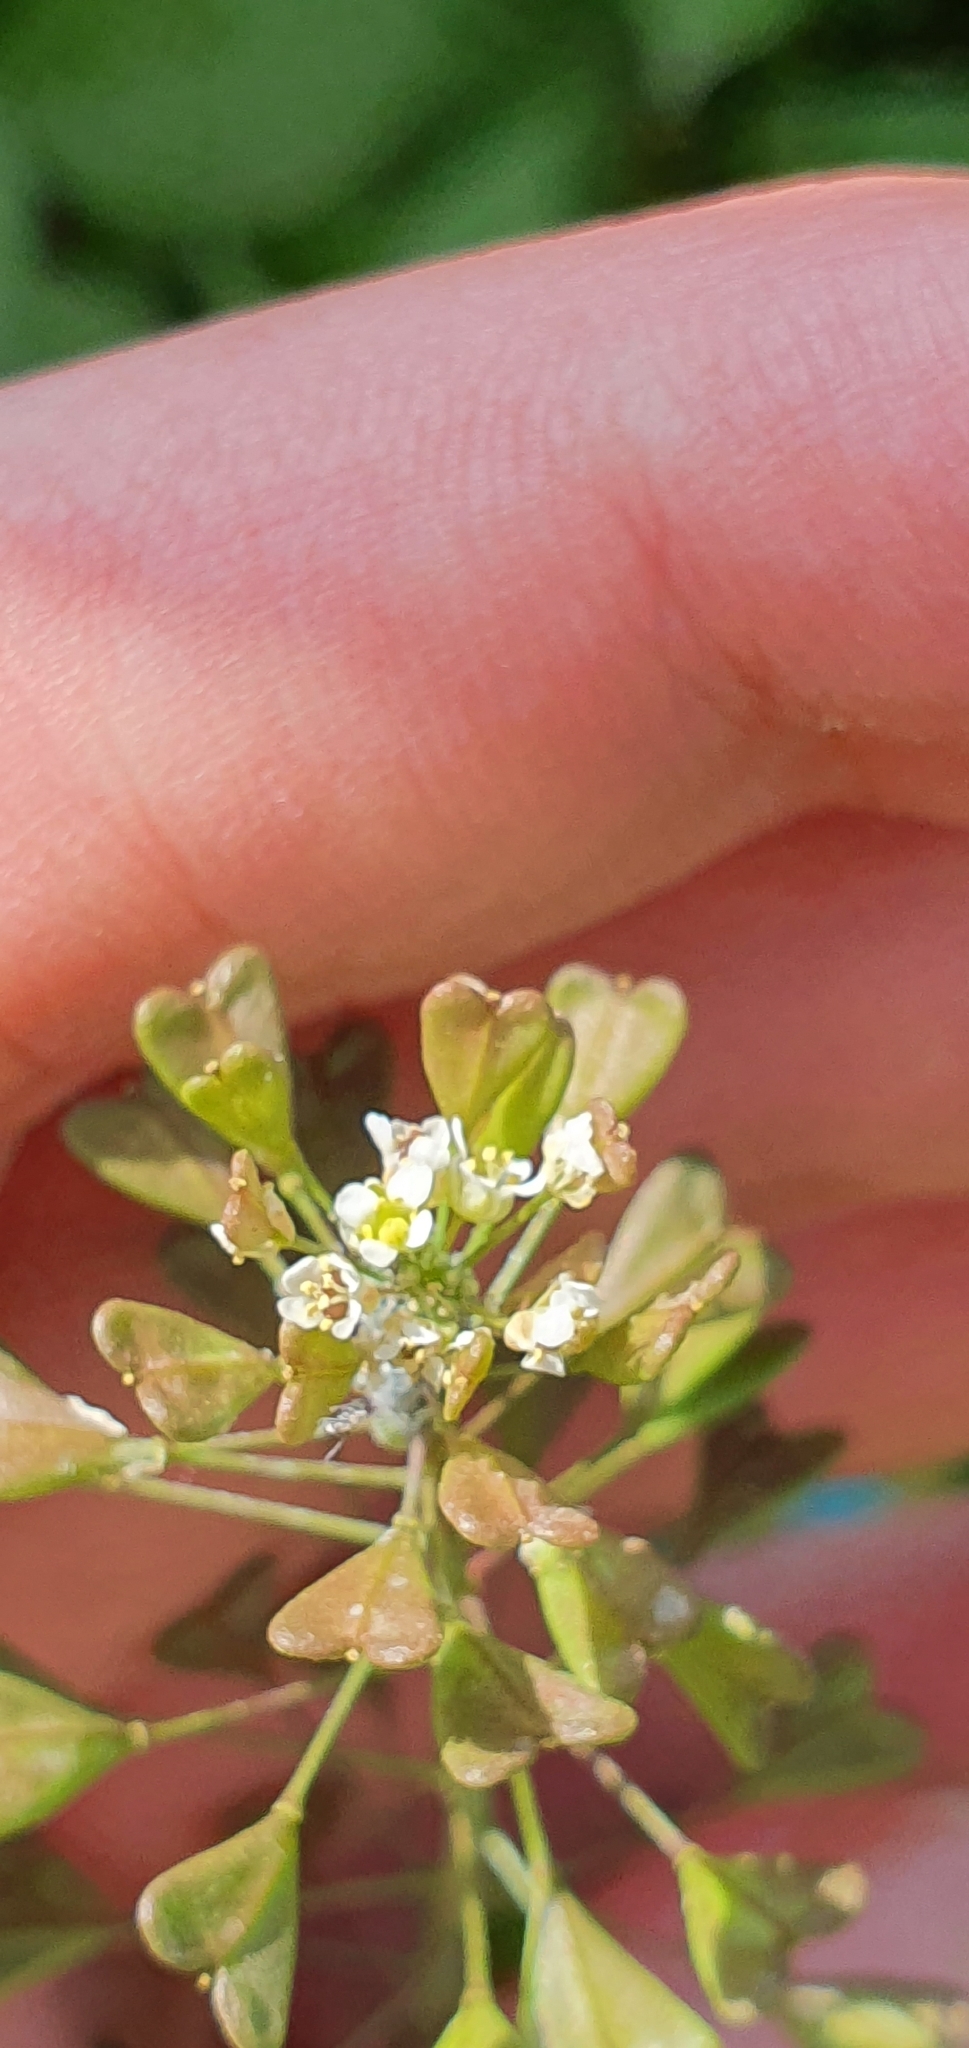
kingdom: Plantae
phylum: Tracheophyta
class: Magnoliopsida
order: Brassicales
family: Brassicaceae
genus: Capsella
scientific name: Capsella bursa-pastoris
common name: Shepherd's purse
